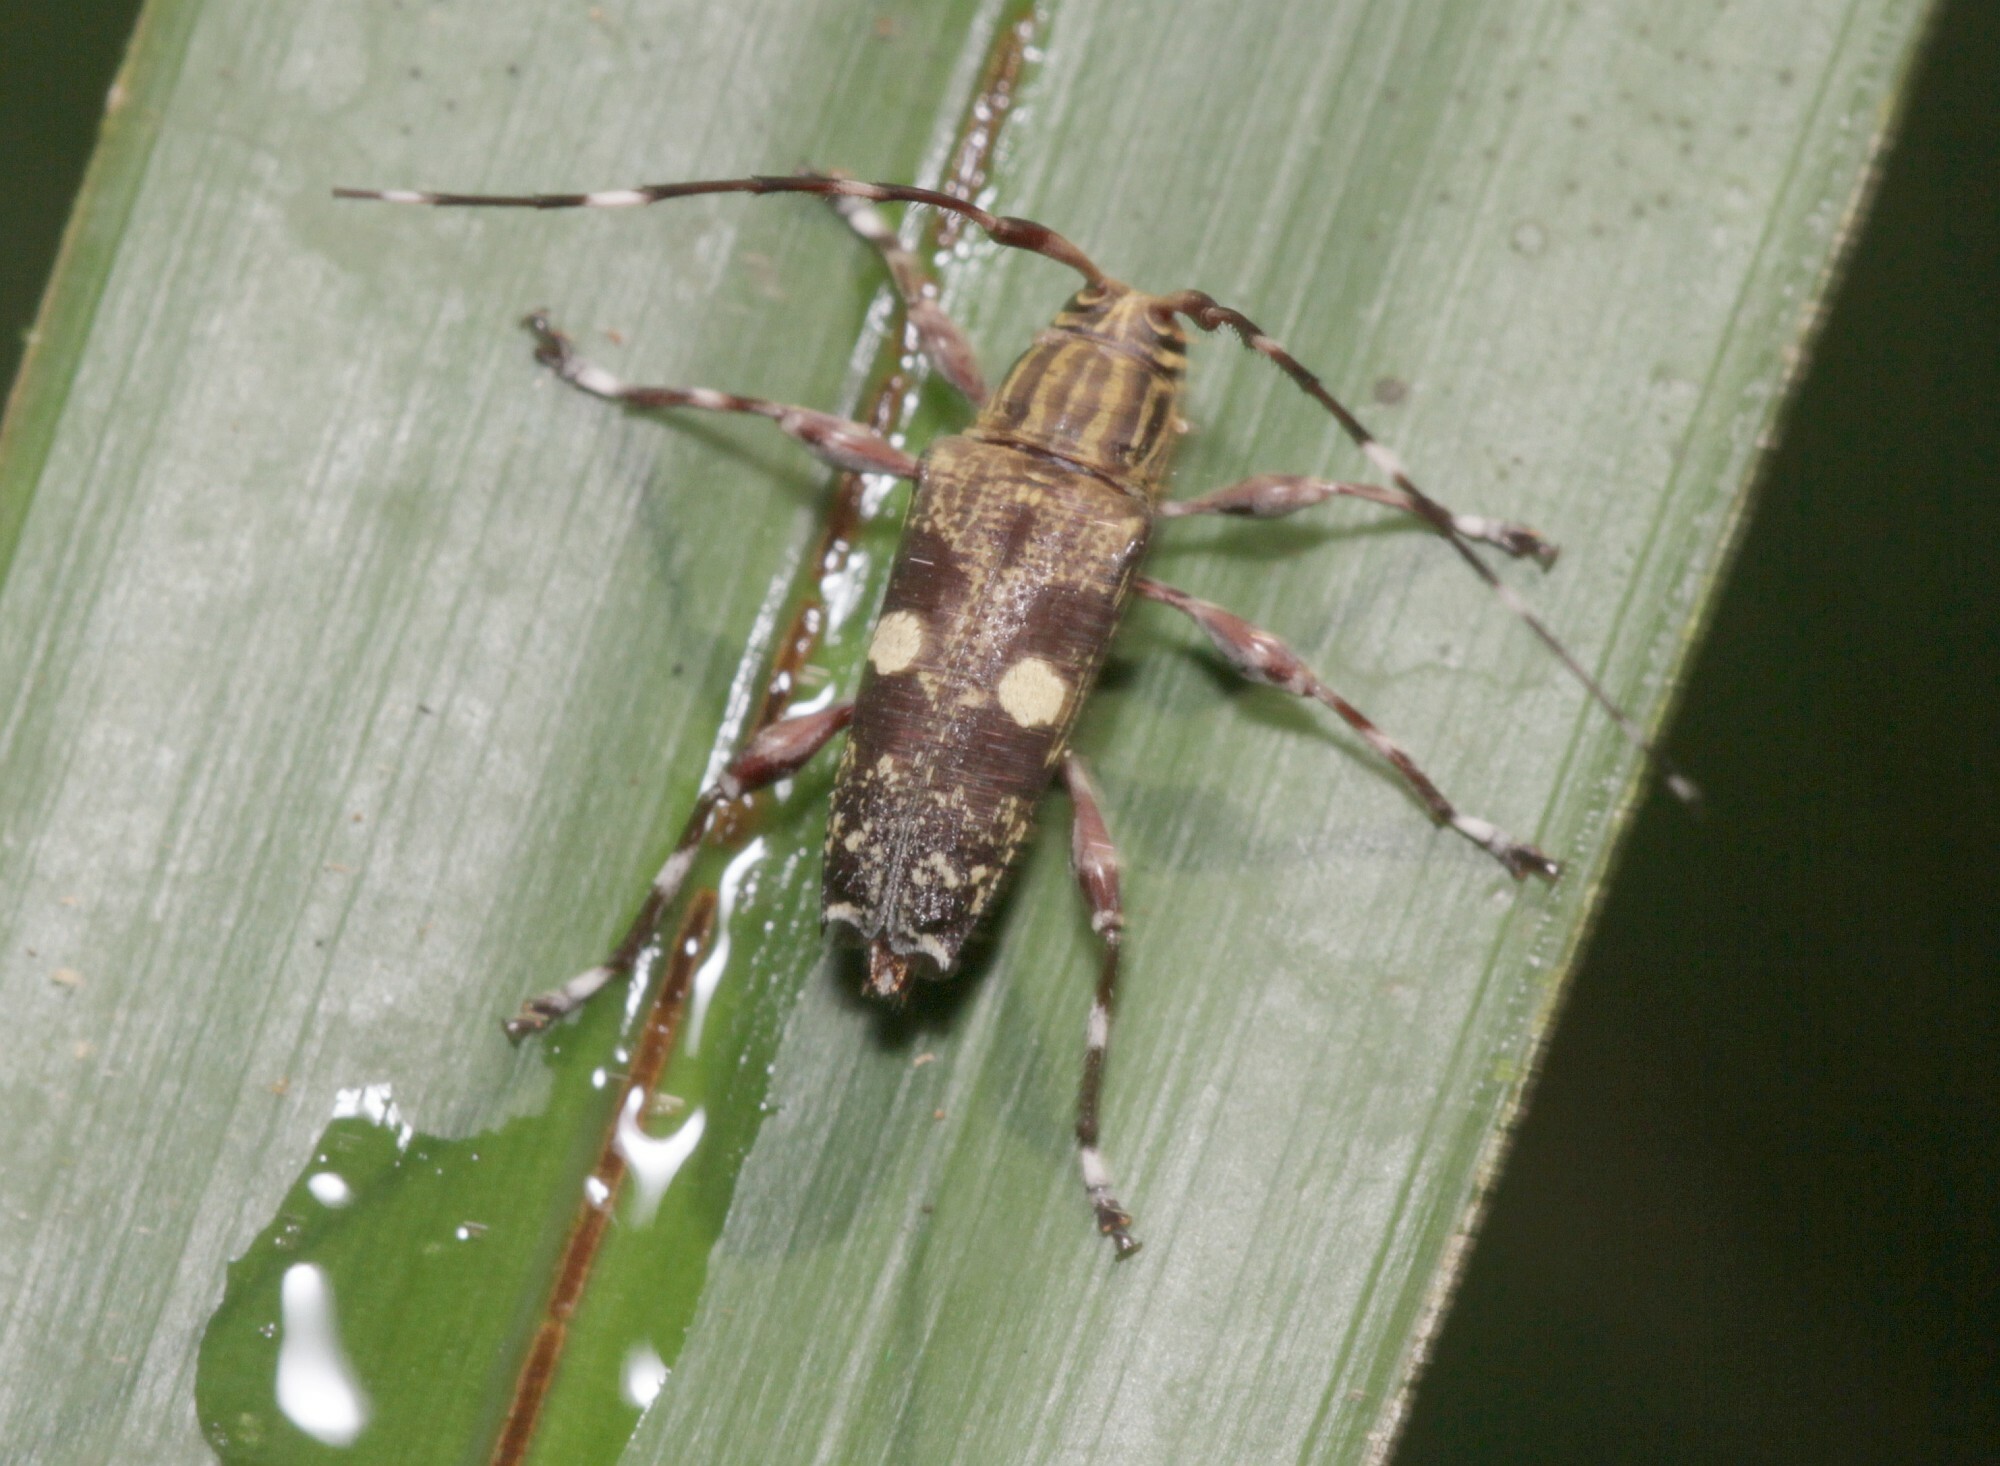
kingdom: Animalia
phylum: Arthropoda
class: Insecta
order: Coleoptera
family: Cerambycidae
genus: Colobothea
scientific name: Colobothea bisignata
